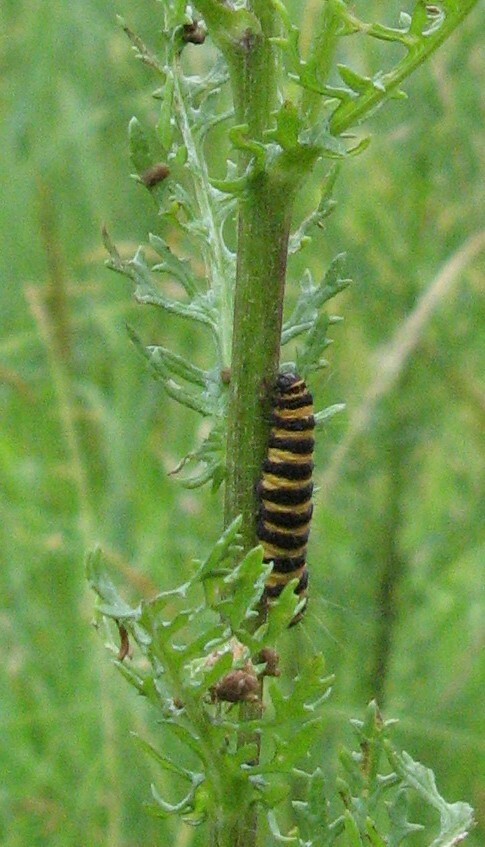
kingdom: Animalia
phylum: Arthropoda
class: Insecta
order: Lepidoptera
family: Erebidae
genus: Tyria
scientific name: Tyria jacobaeae
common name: Cinnabar
